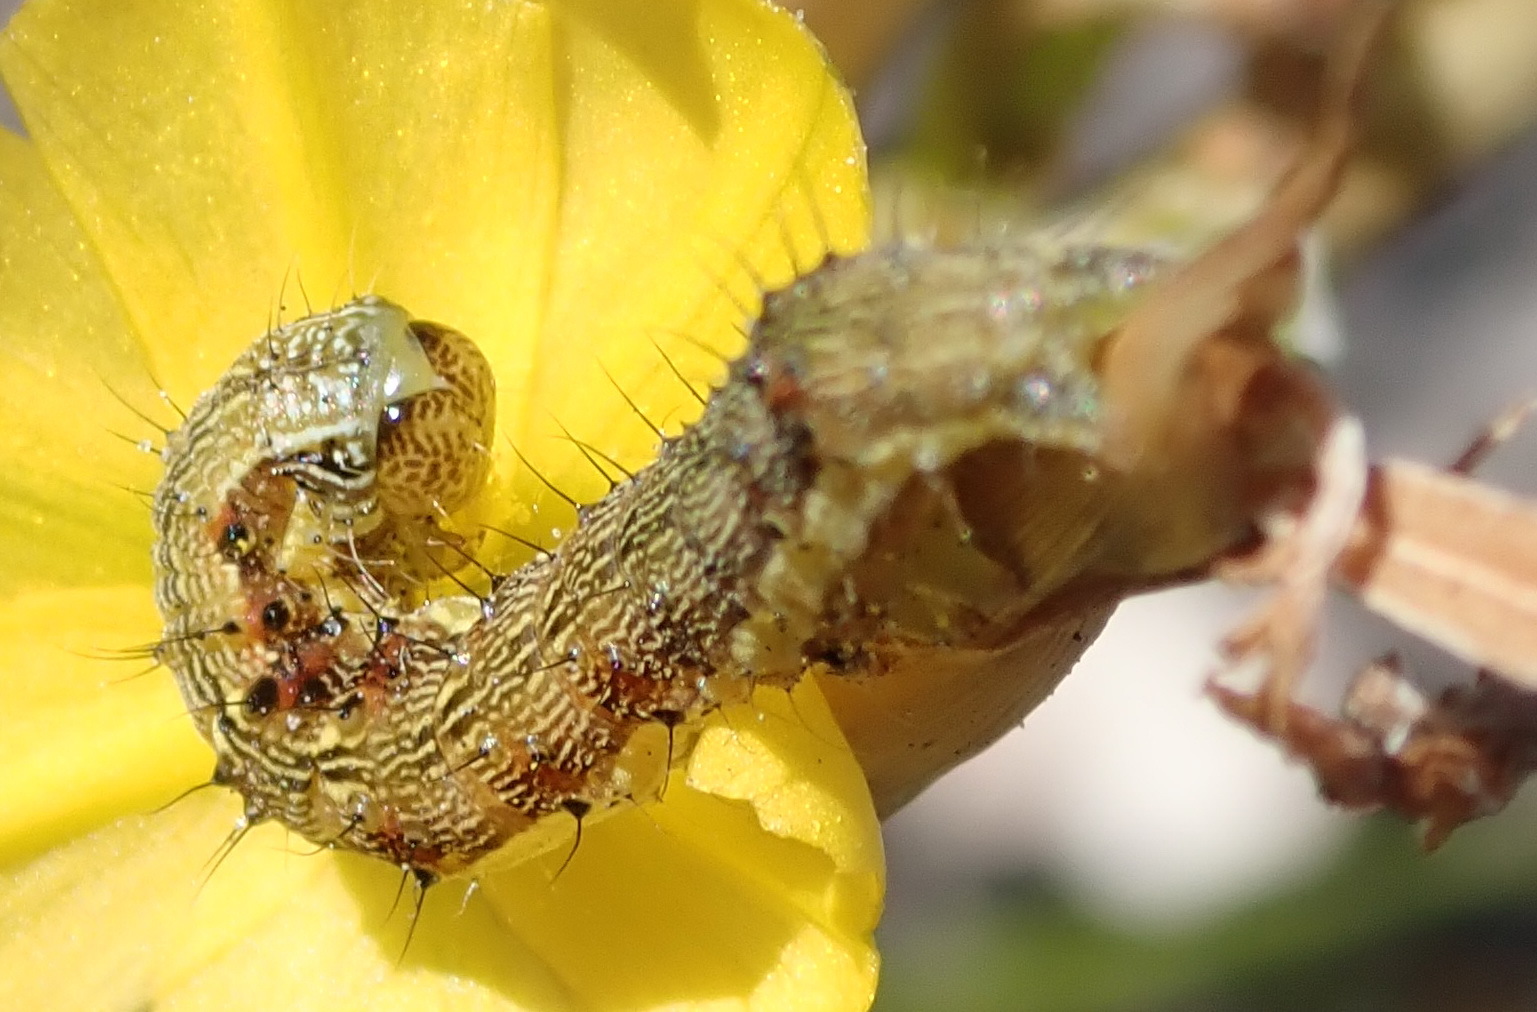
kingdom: Animalia
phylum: Arthropoda
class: Insecta
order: Lepidoptera
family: Noctuidae
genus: Helicoverpa
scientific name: Helicoverpa armigera
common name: Cotton bollworm
